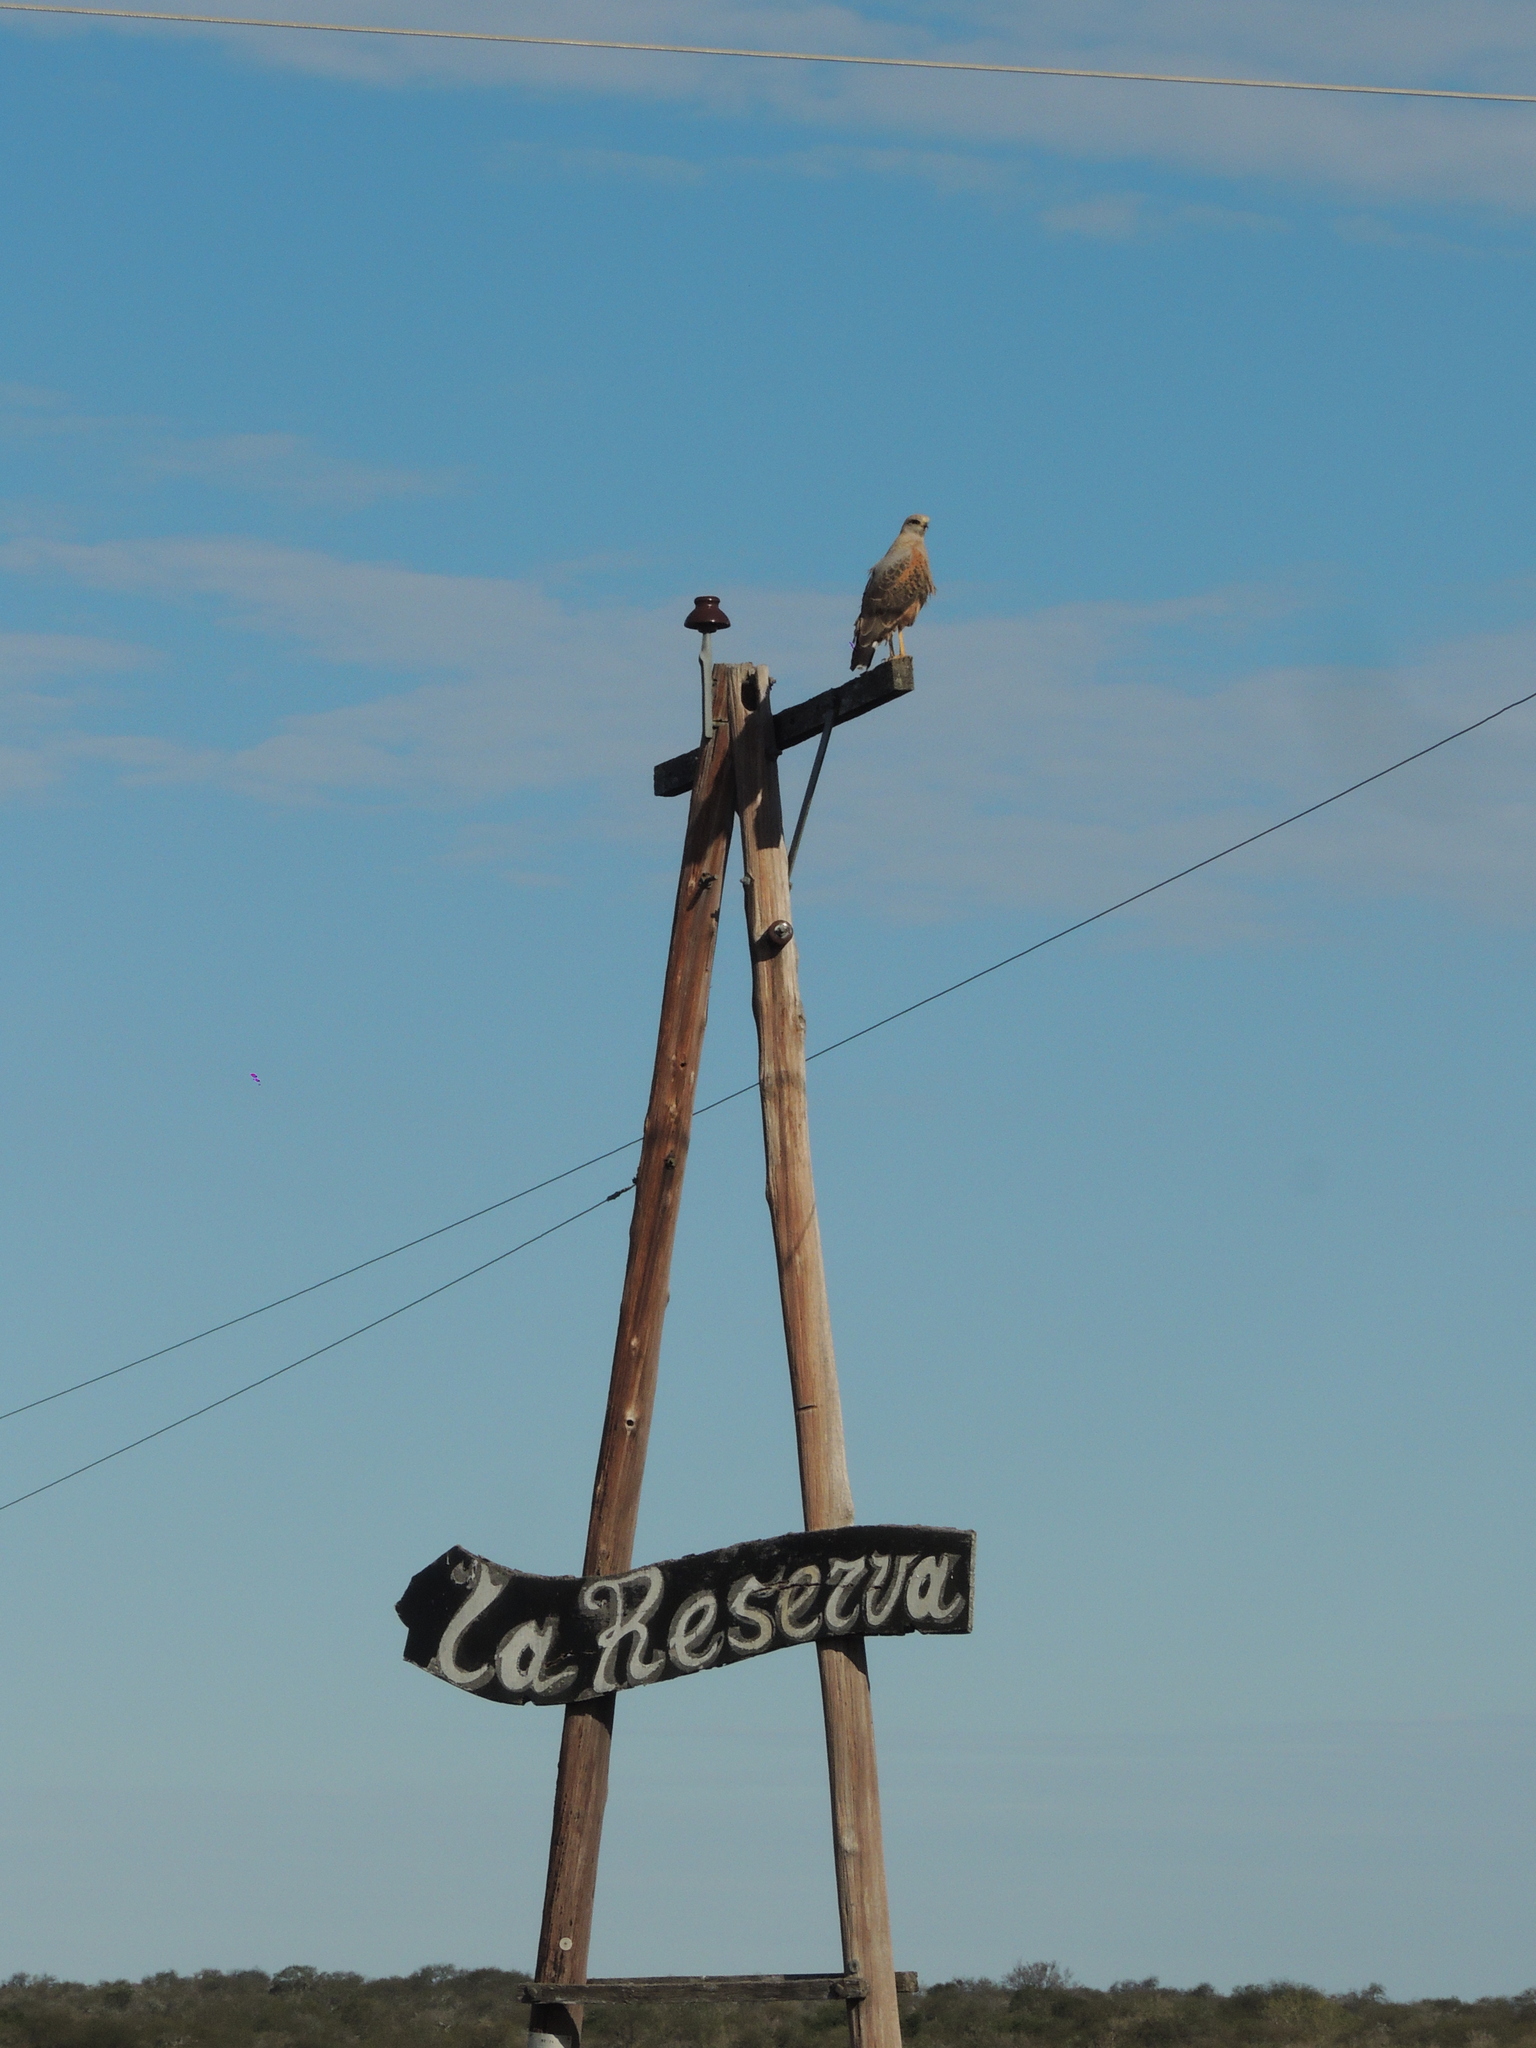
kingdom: Animalia
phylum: Chordata
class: Aves
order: Accipitriformes
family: Accipitridae
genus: Buteogallus
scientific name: Buteogallus meridionalis
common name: Savanna hawk
